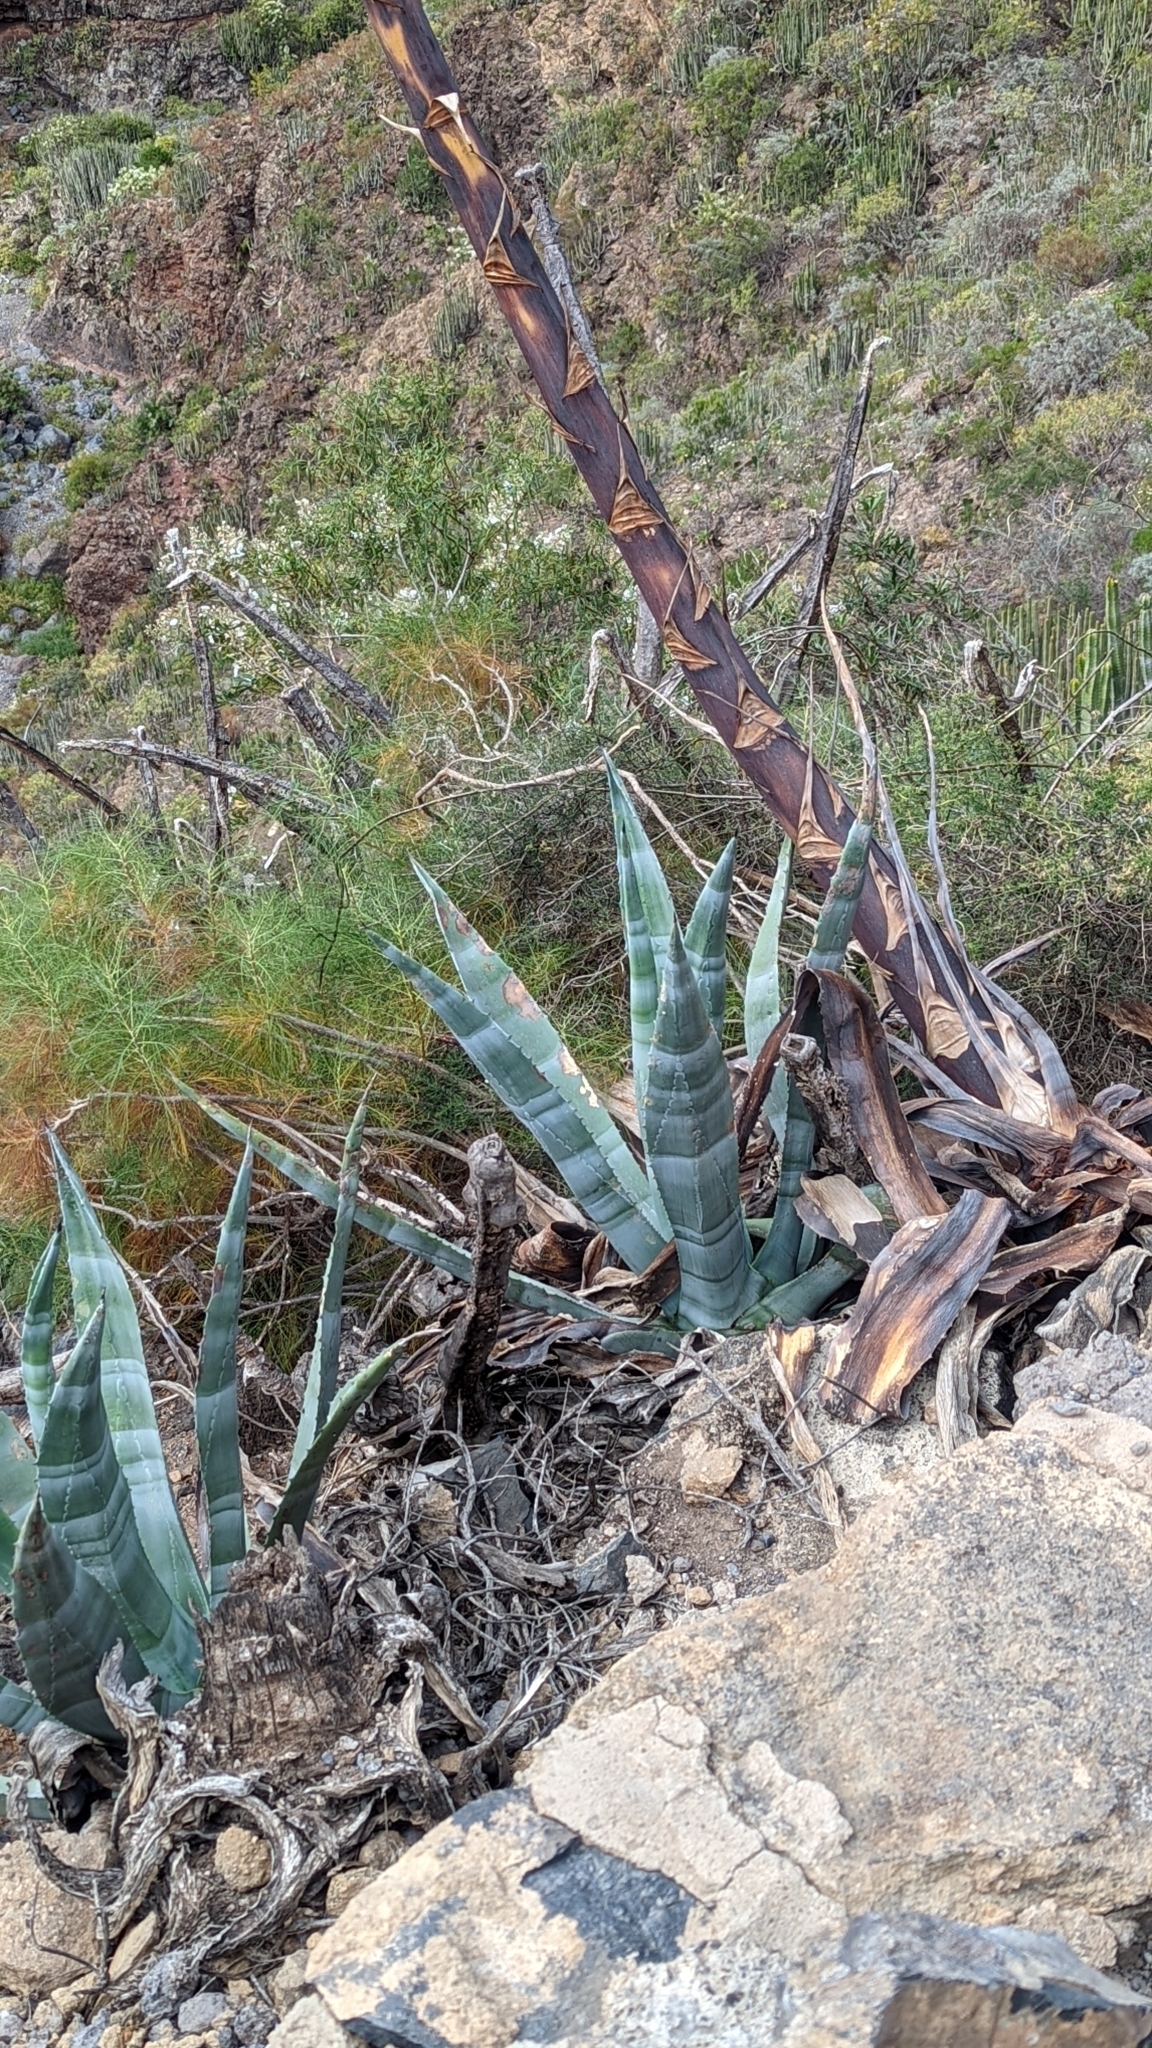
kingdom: Plantae
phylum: Tracheophyta
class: Liliopsida
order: Asparagales
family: Asparagaceae
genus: Agave
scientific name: Agave americana
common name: Centuryplant
